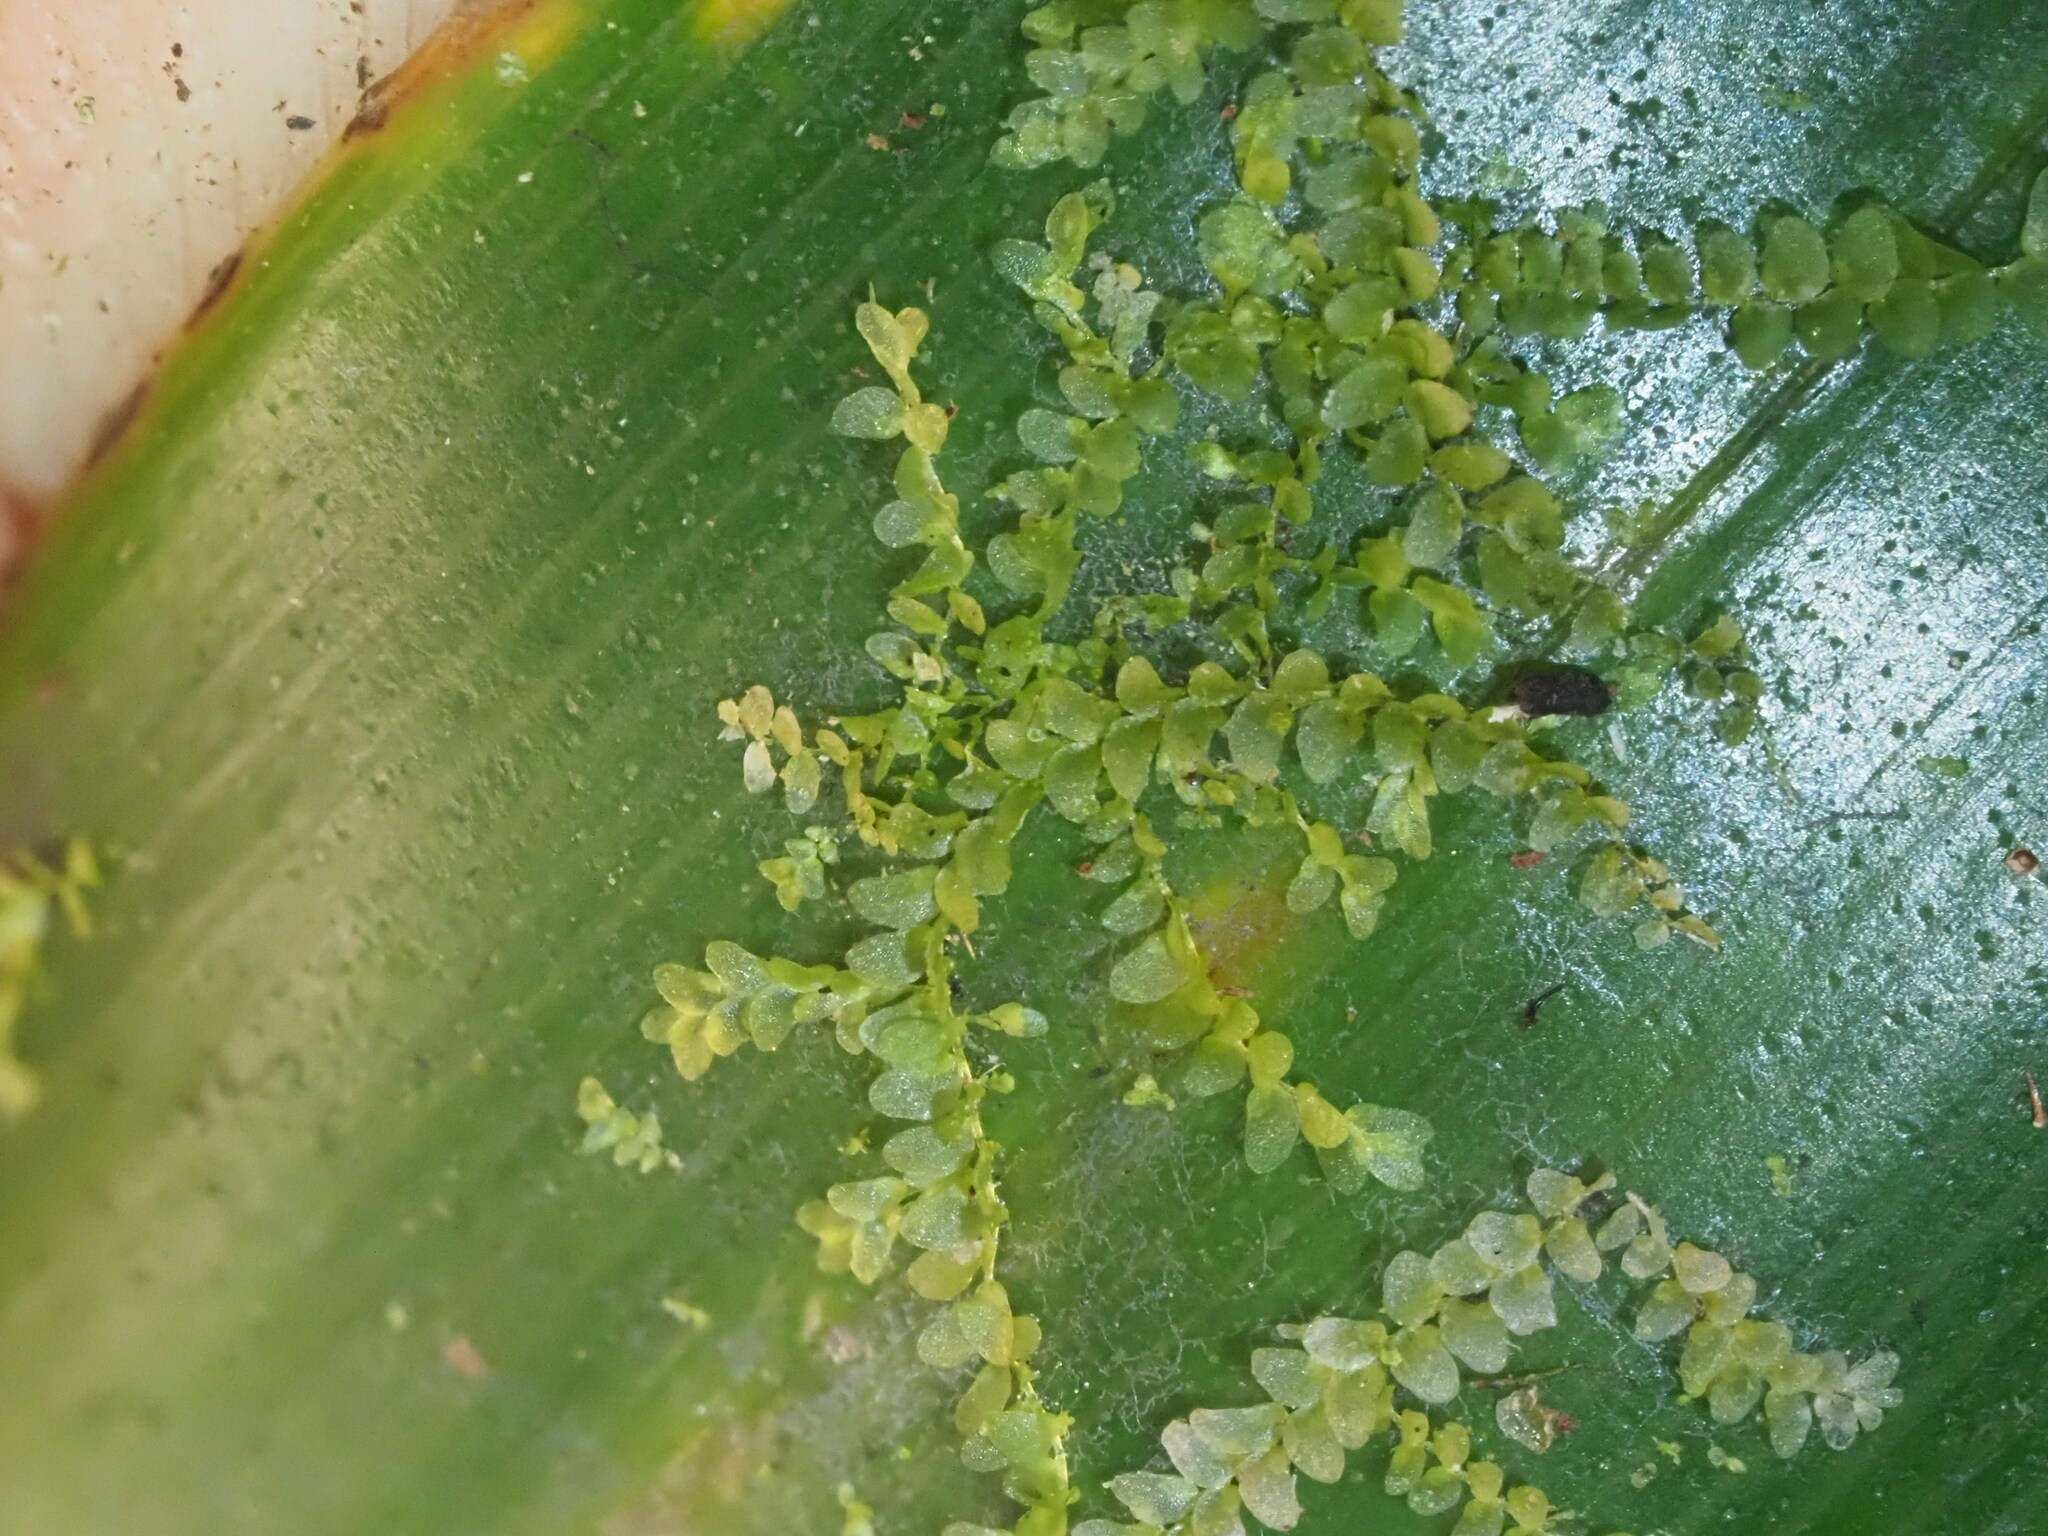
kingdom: Plantae
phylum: Marchantiophyta
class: Jungermanniopsida
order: Porellales
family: Lejeuneaceae
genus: Cololejeunea
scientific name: Cololejeunea ceatocarpa
